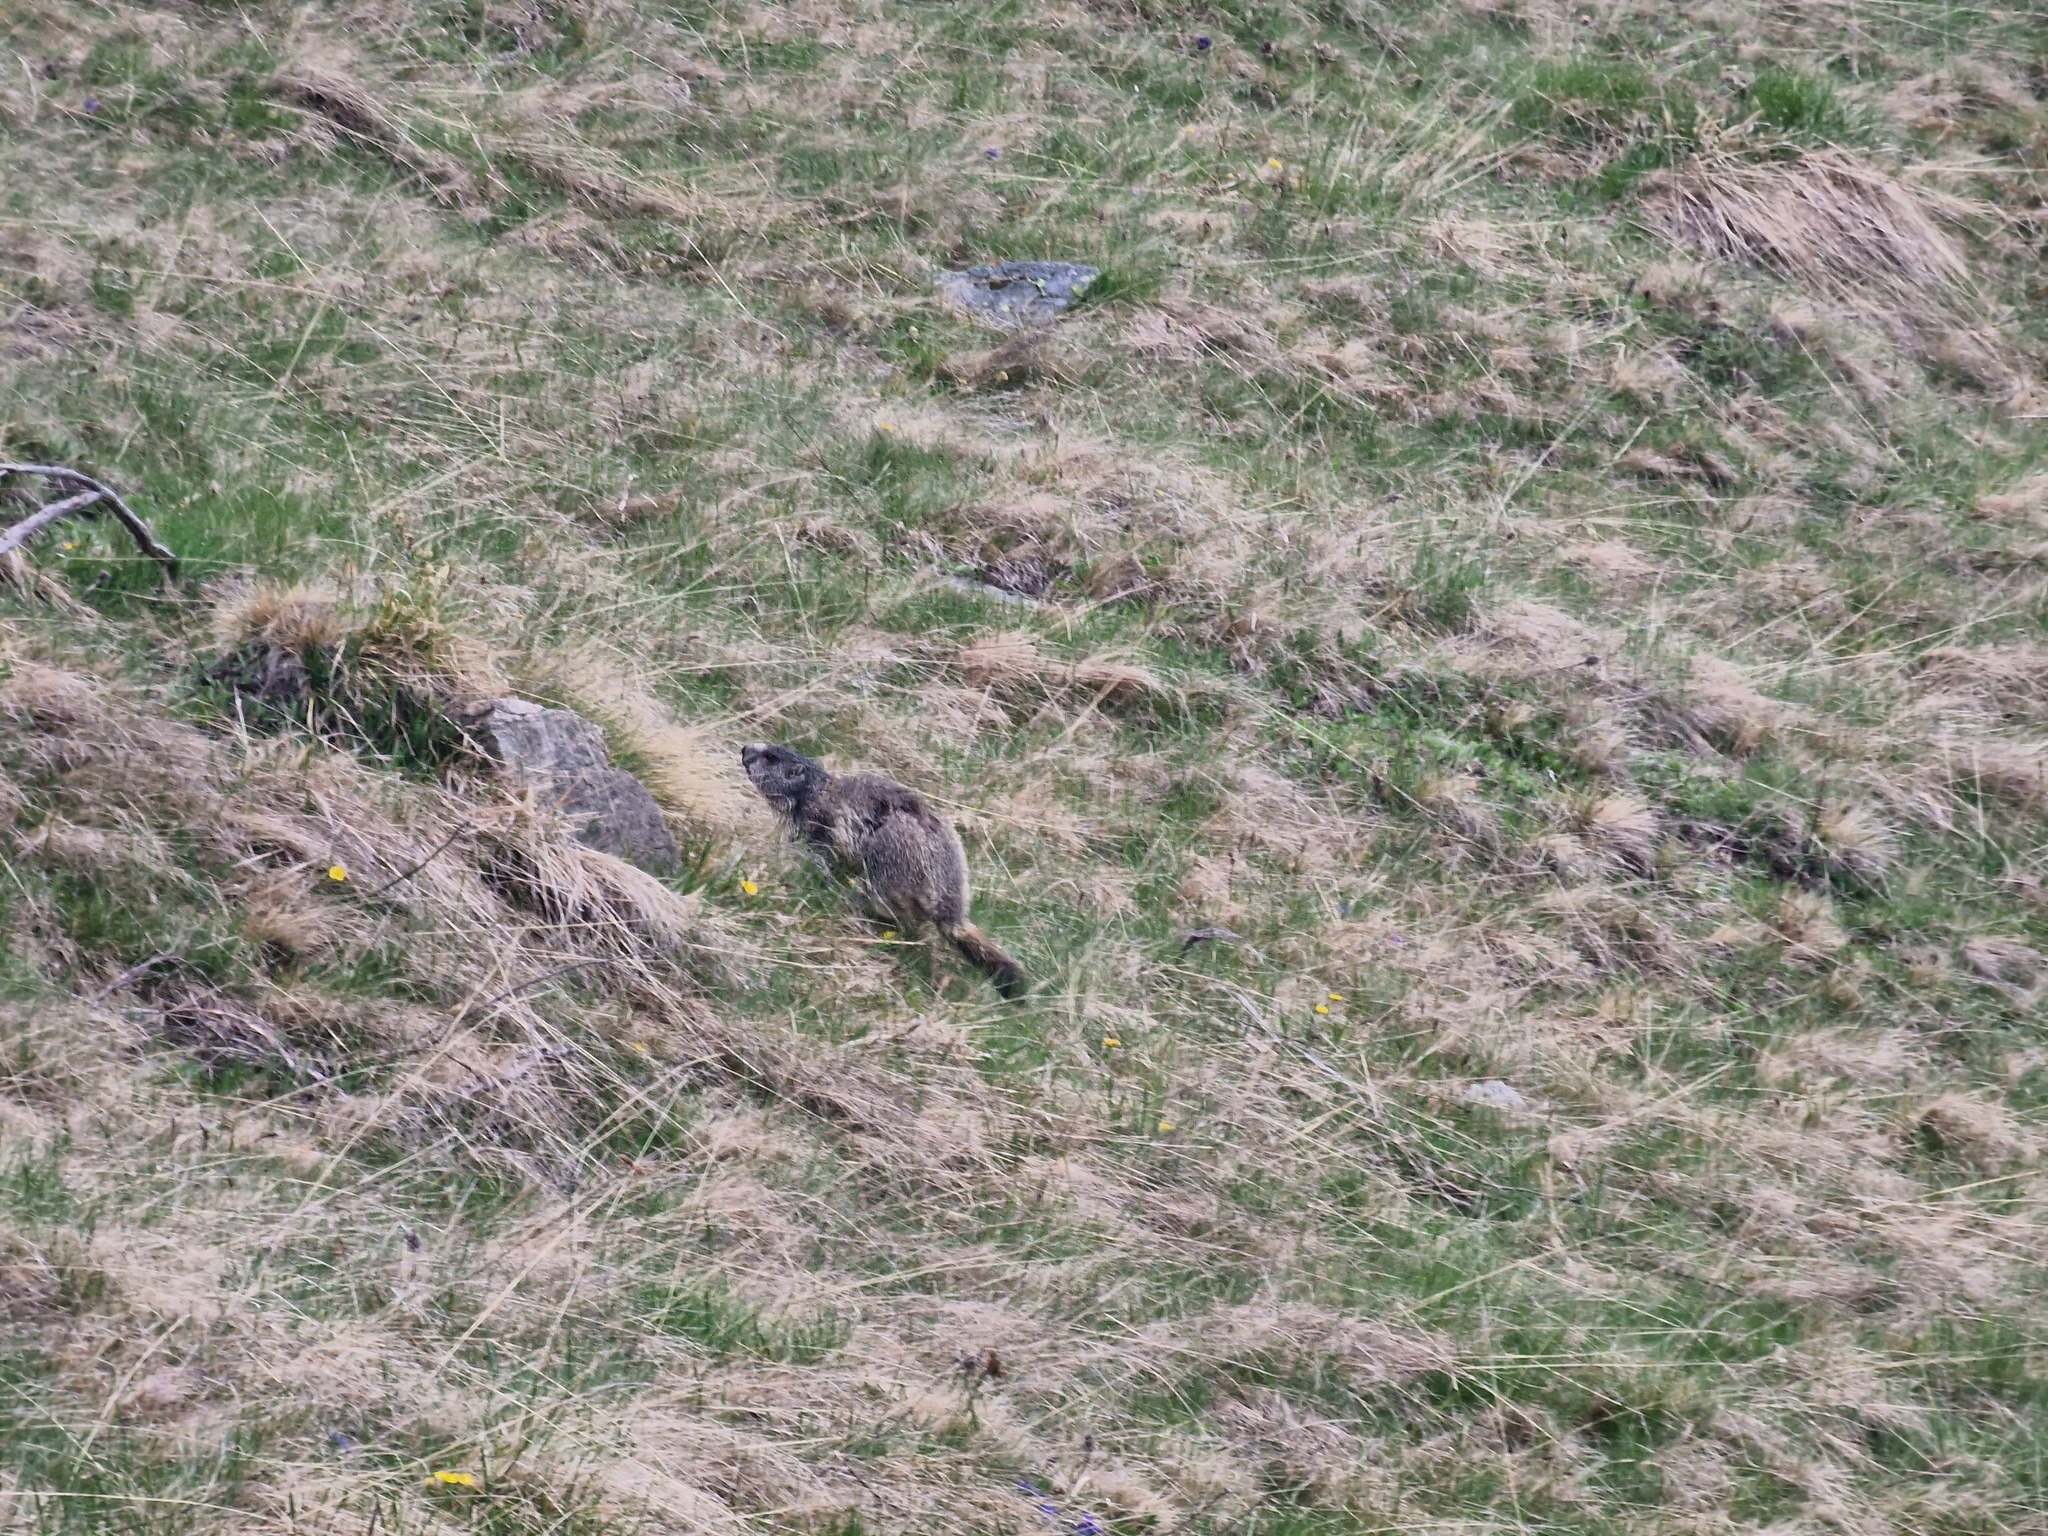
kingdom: Animalia
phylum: Chordata
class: Mammalia
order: Rodentia
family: Sciuridae
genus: Marmota
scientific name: Marmota marmota
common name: Alpine marmot
